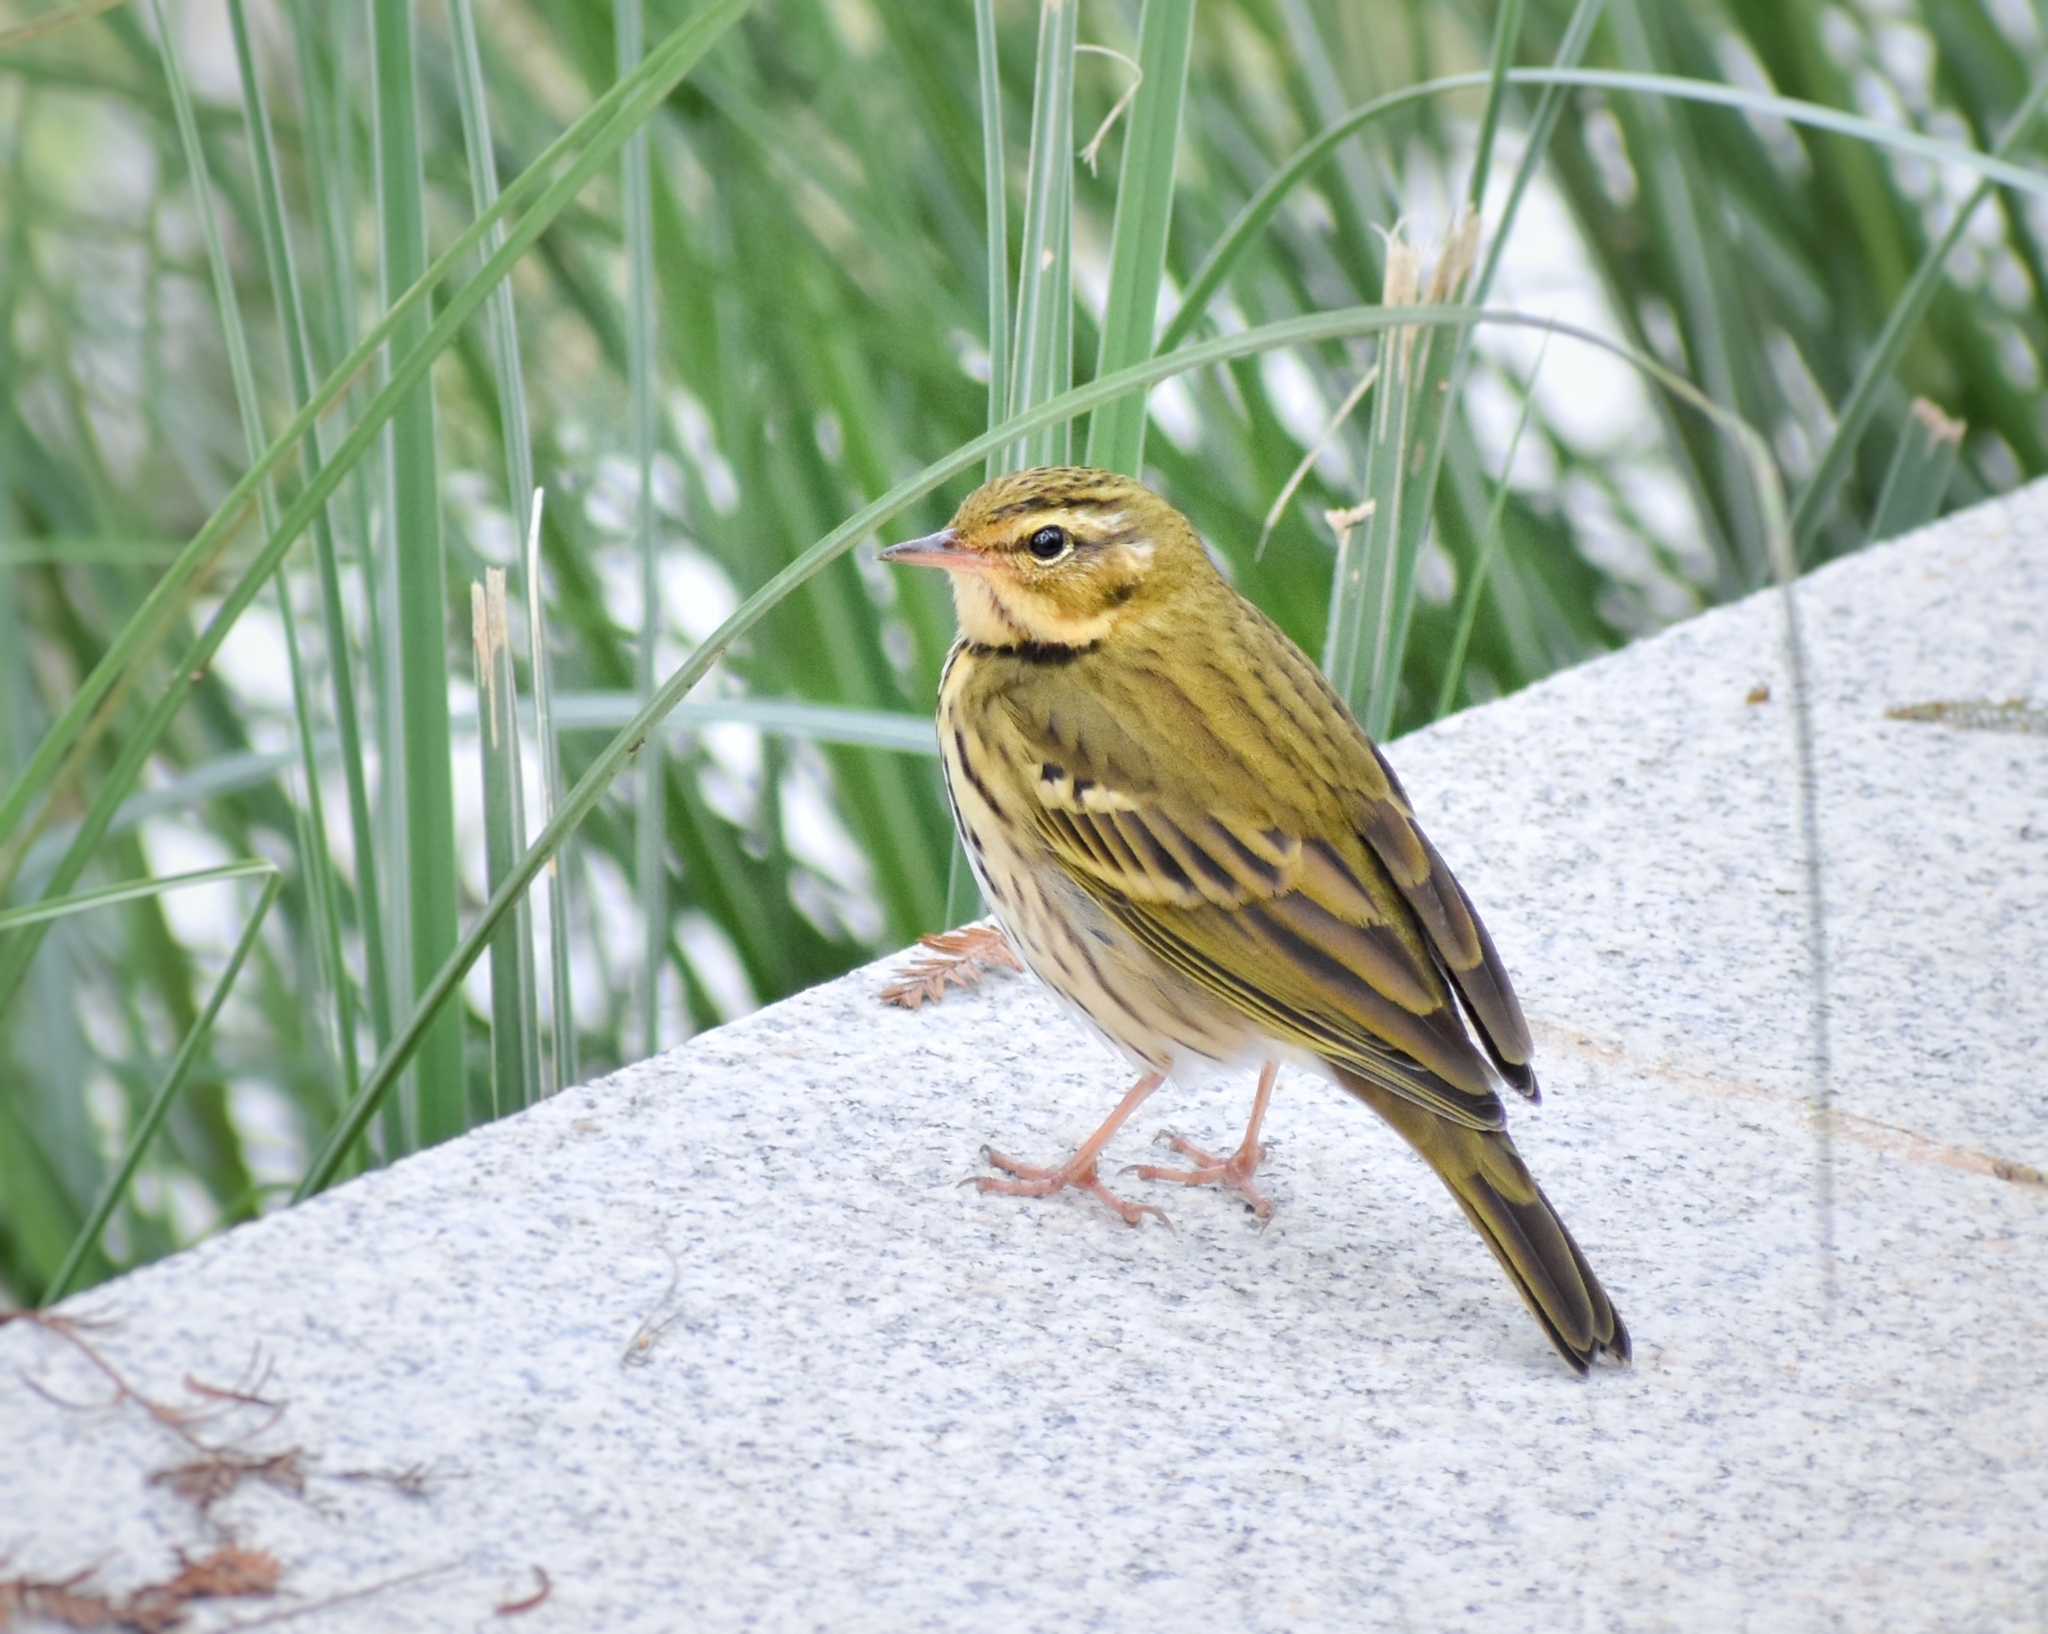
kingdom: Animalia
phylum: Chordata
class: Aves
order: Passeriformes
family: Motacillidae
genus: Anthus
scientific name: Anthus hodgsoni
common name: Olive-backed pipit
